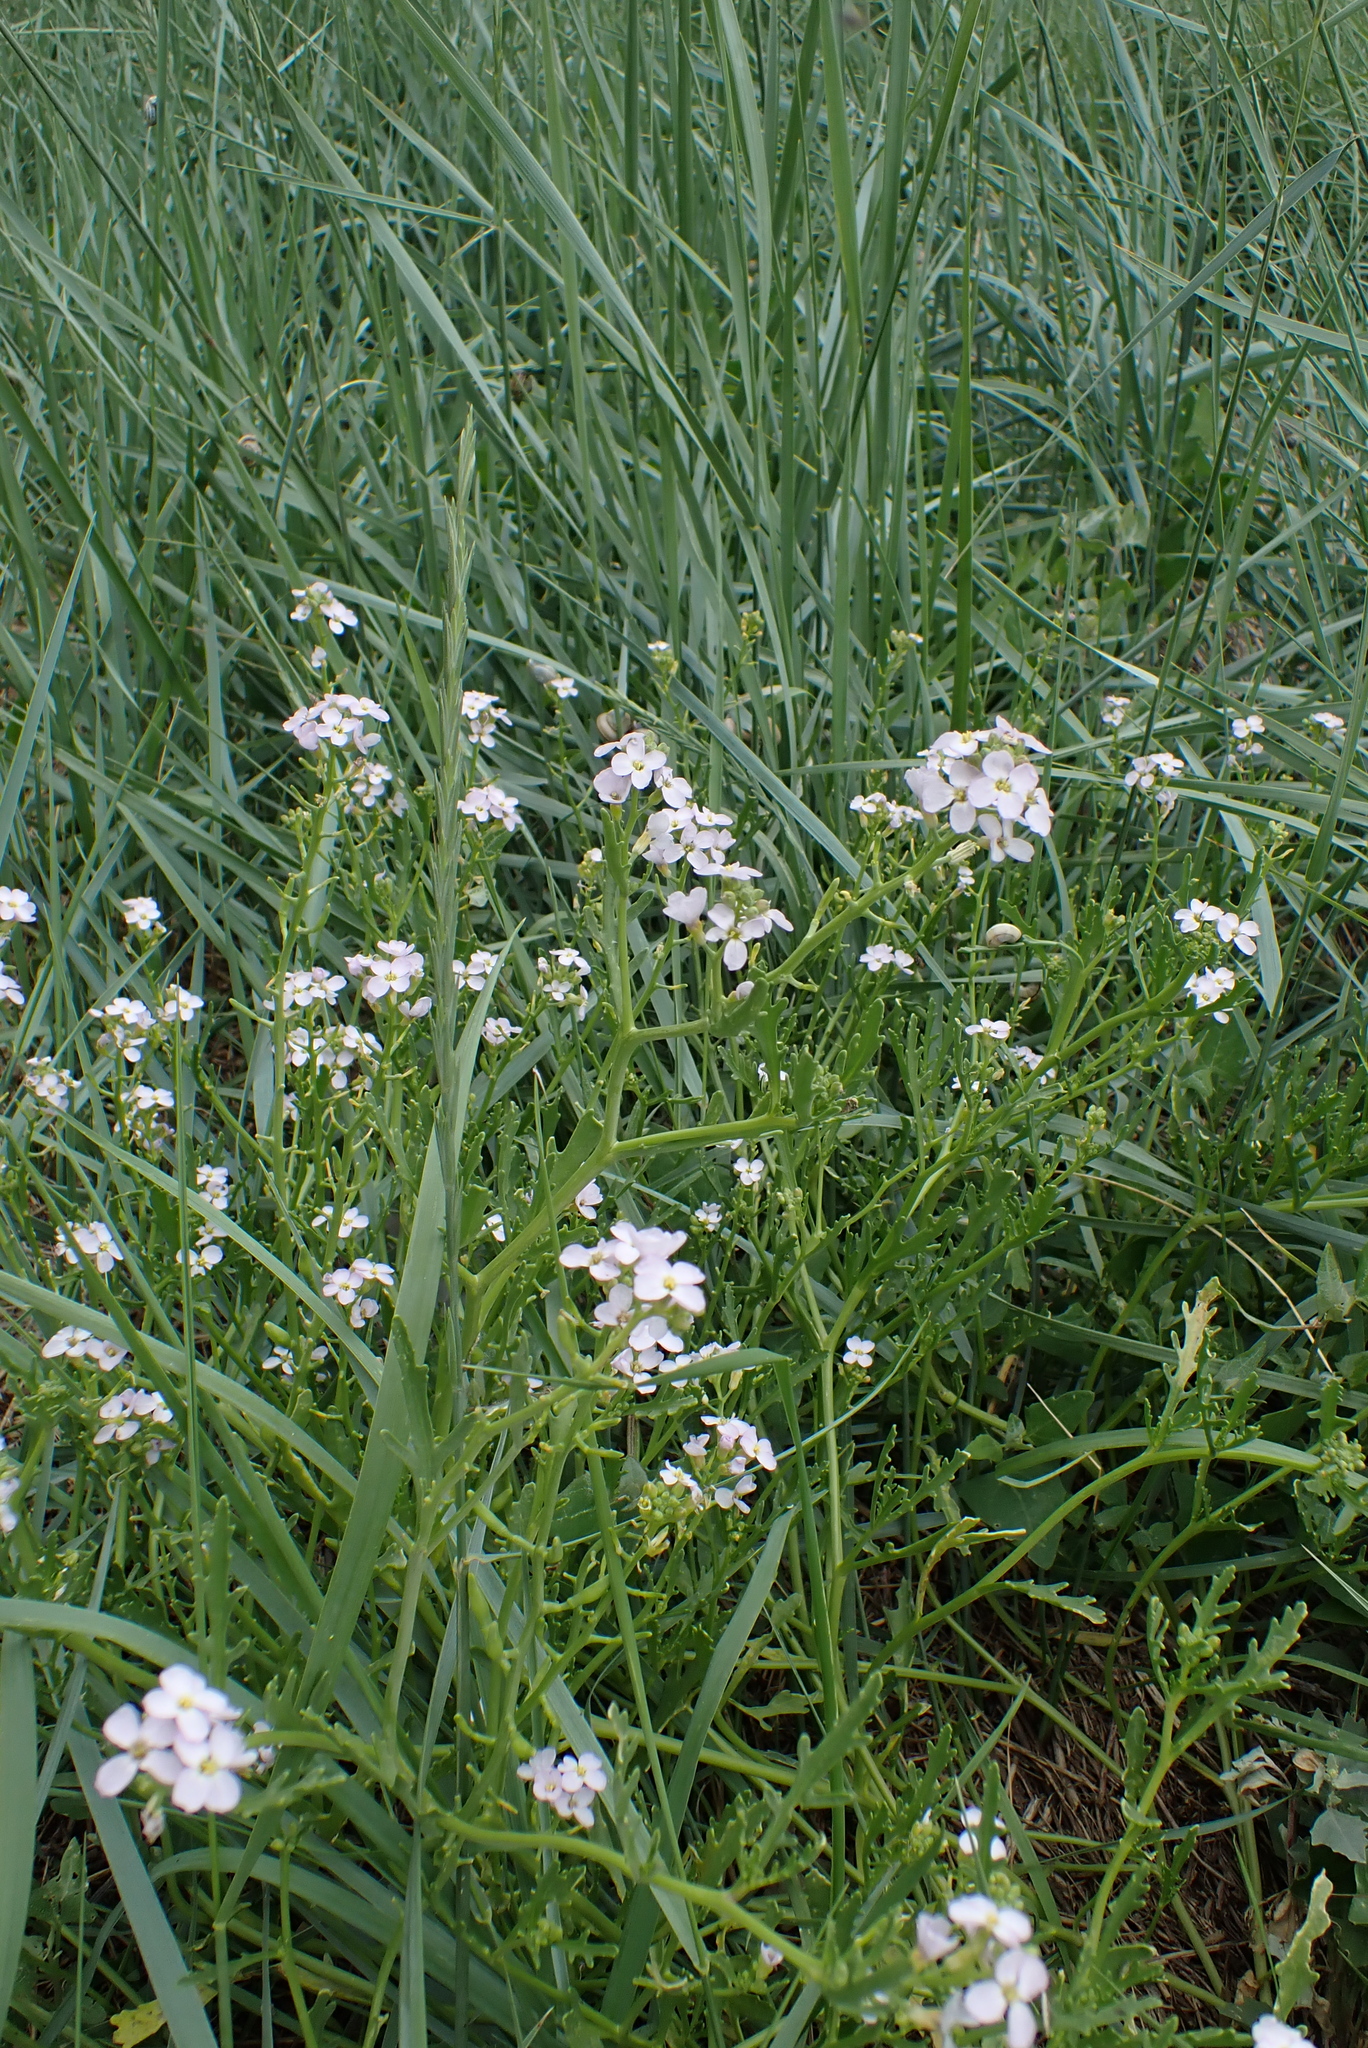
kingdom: Plantae
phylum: Tracheophyta
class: Magnoliopsida
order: Brassicales
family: Brassicaceae
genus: Cakile
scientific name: Cakile maritima
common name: Sea rocket
